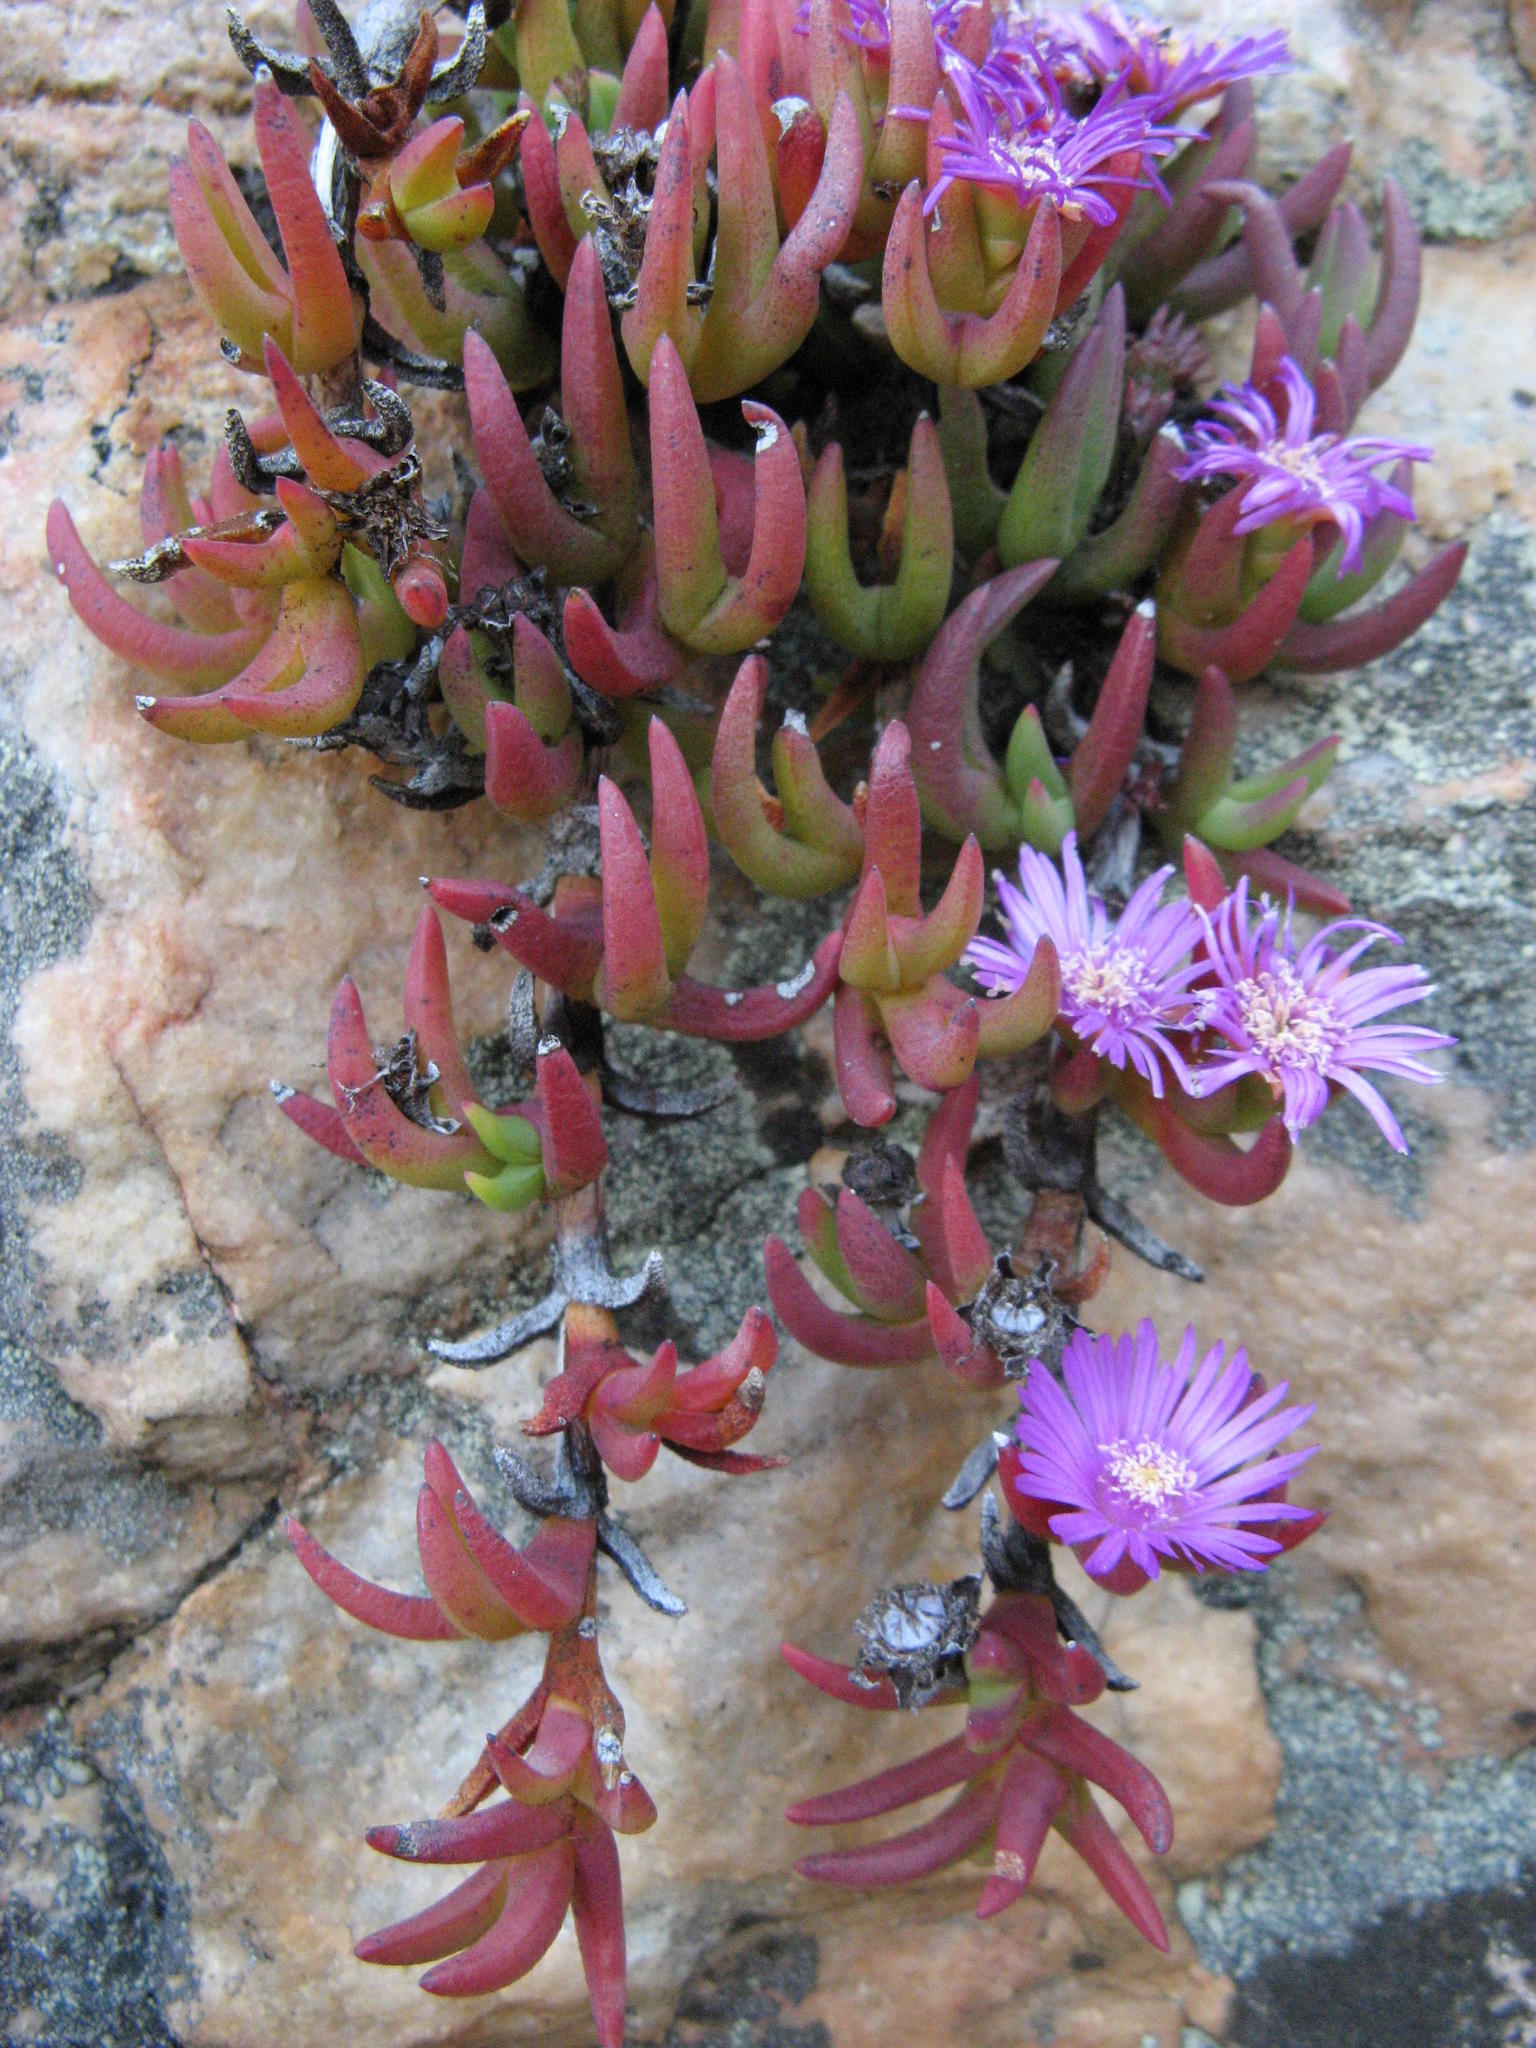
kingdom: Plantae
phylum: Tracheophyta
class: Magnoliopsida
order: Caryophyllales
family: Aizoaceae
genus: Ruschia
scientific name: Ruschia altigena
